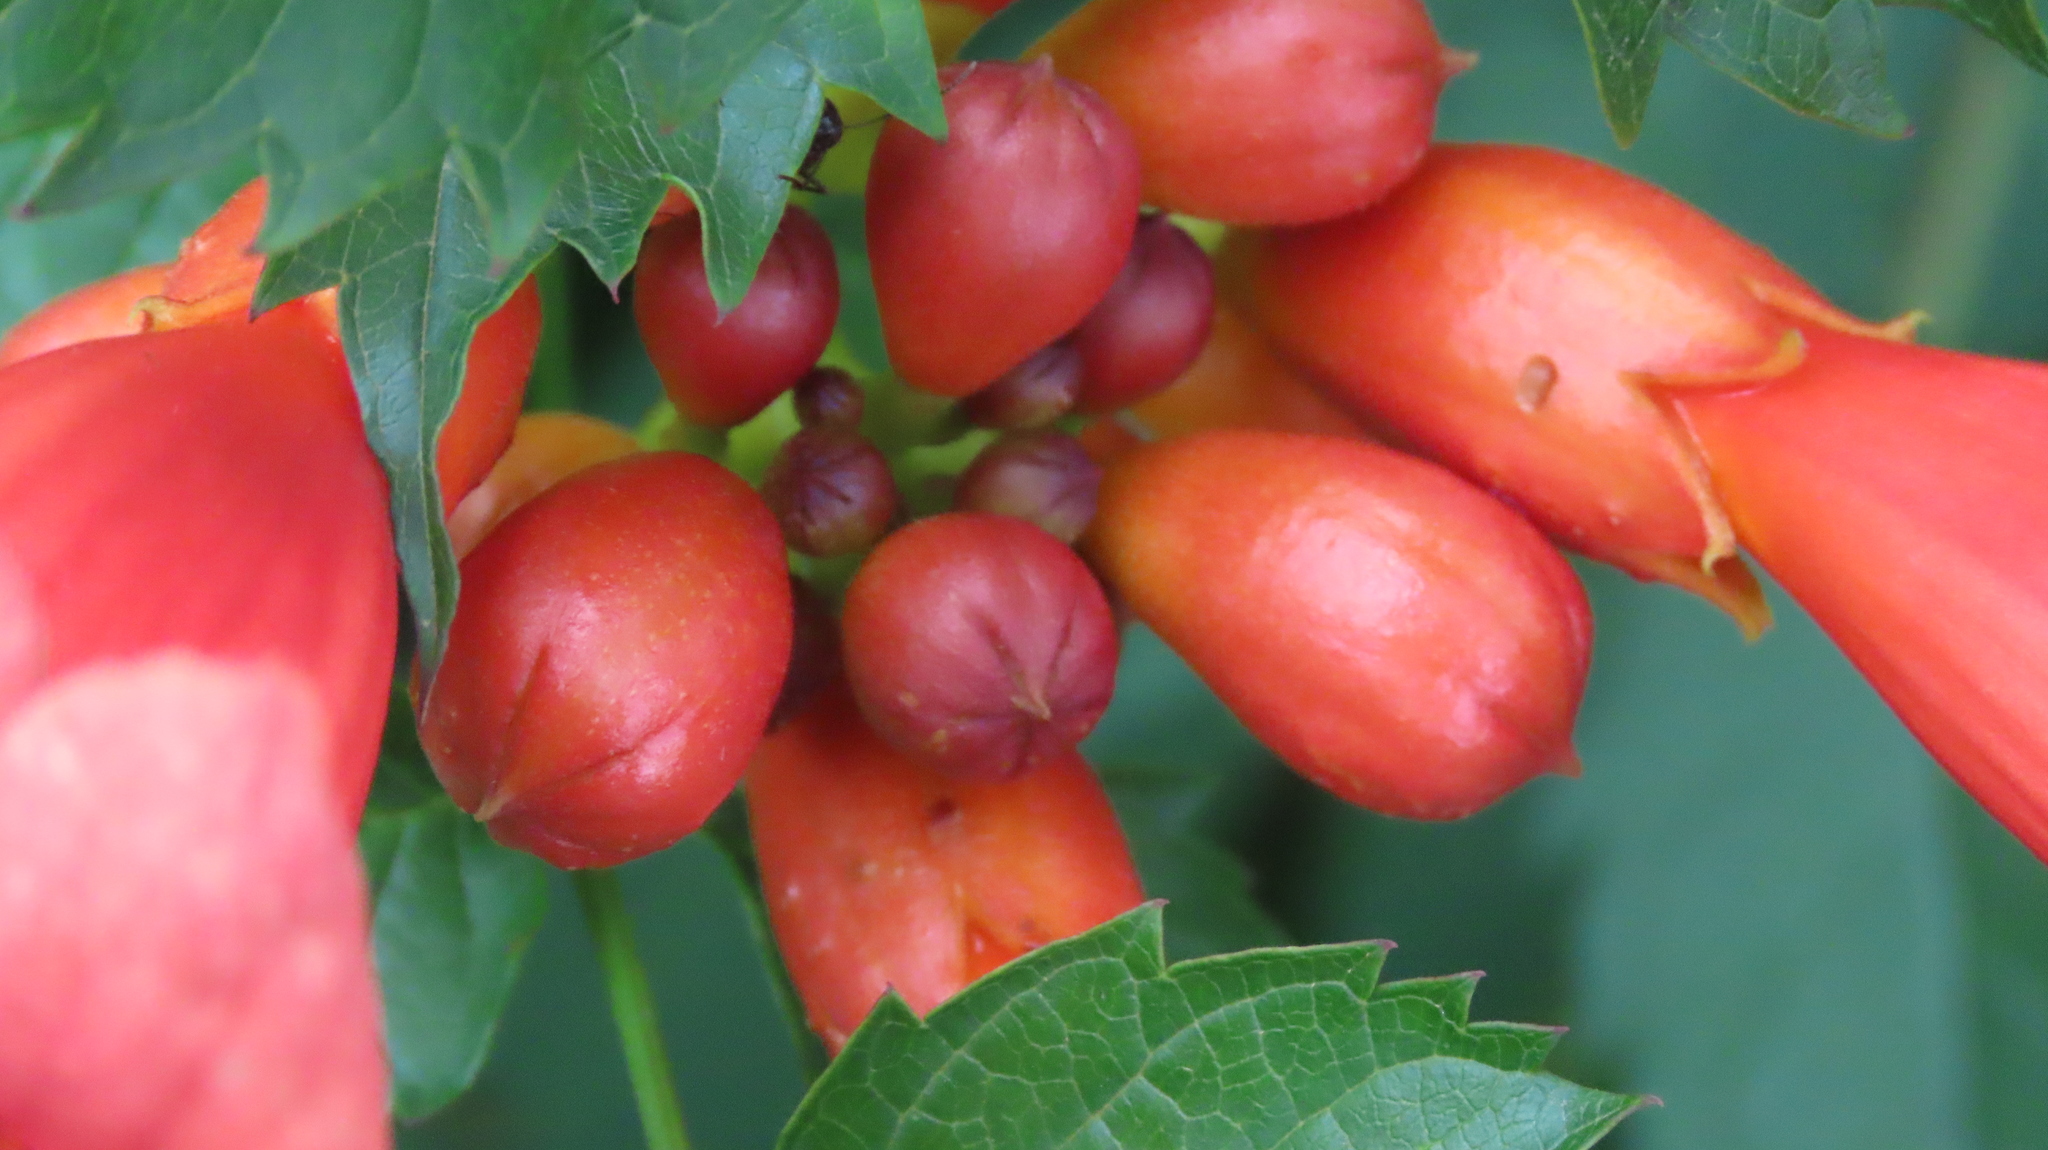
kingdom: Plantae
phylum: Tracheophyta
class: Magnoliopsida
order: Lamiales
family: Bignoniaceae
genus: Campsis
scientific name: Campsis radicans
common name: Trumpet-creeper
